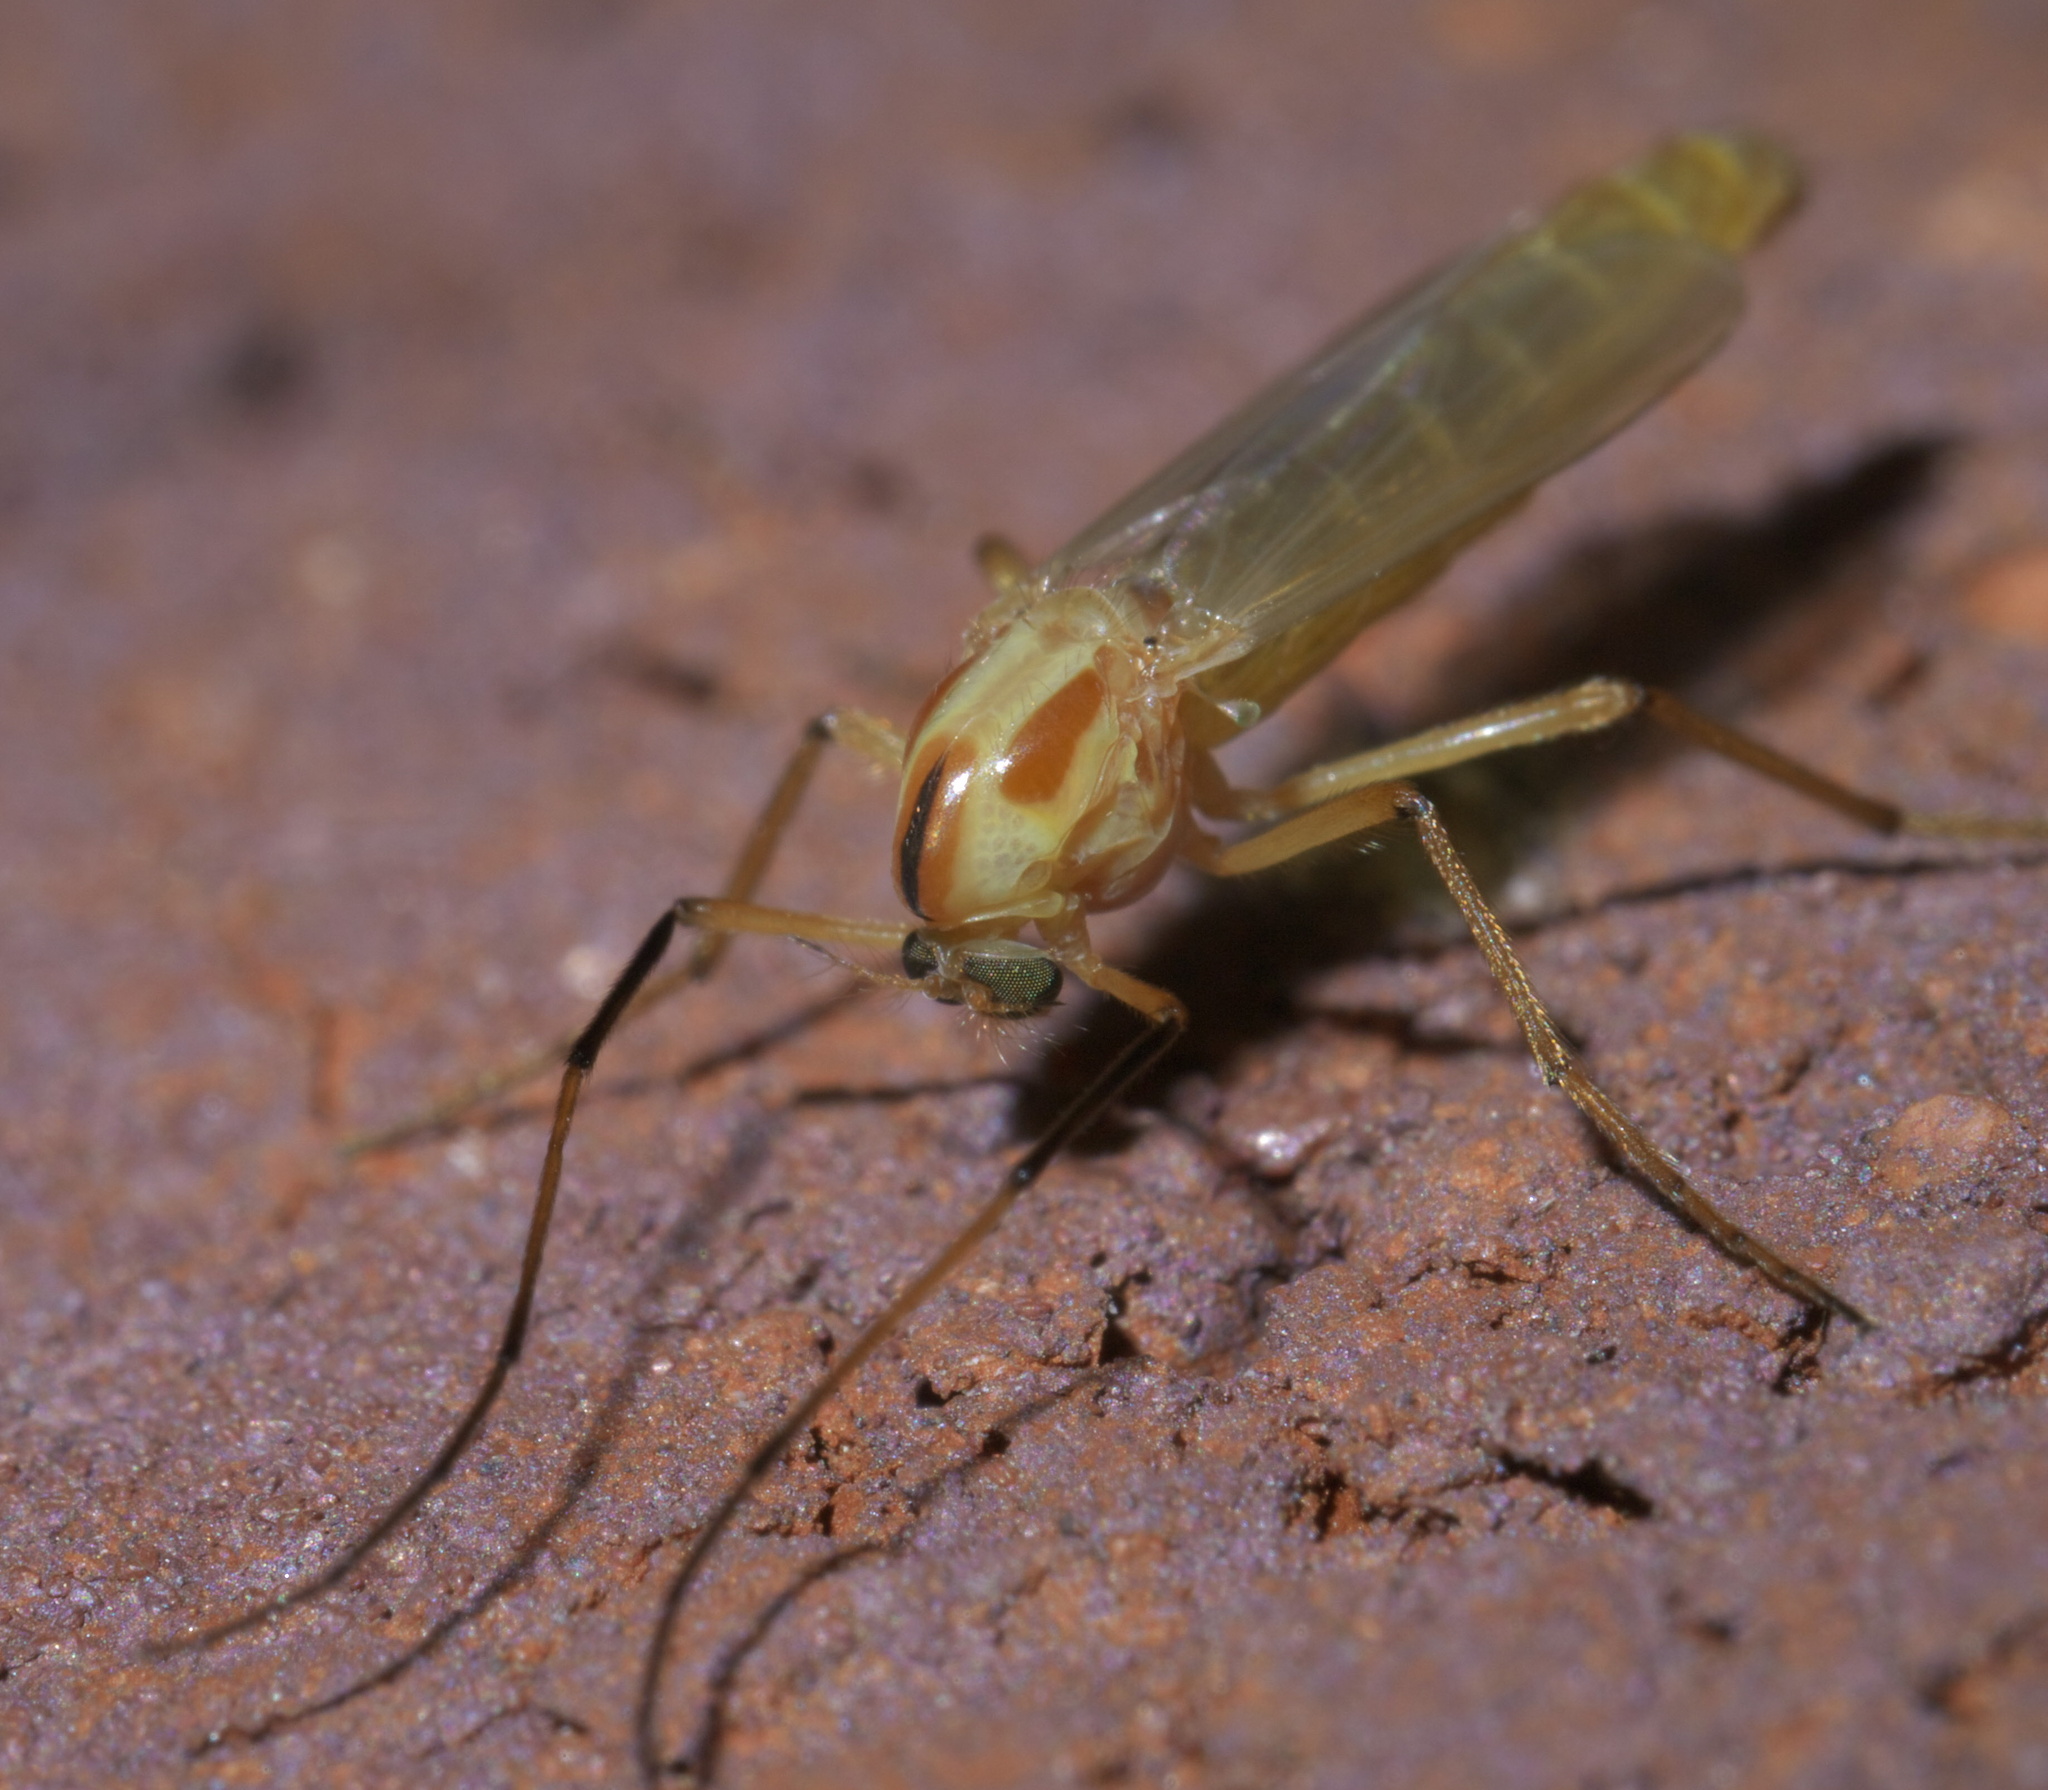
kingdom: Animalia
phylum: Arthropoda
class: Insecta
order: Diptera
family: Chironomidae
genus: Axarus
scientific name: Axarus
